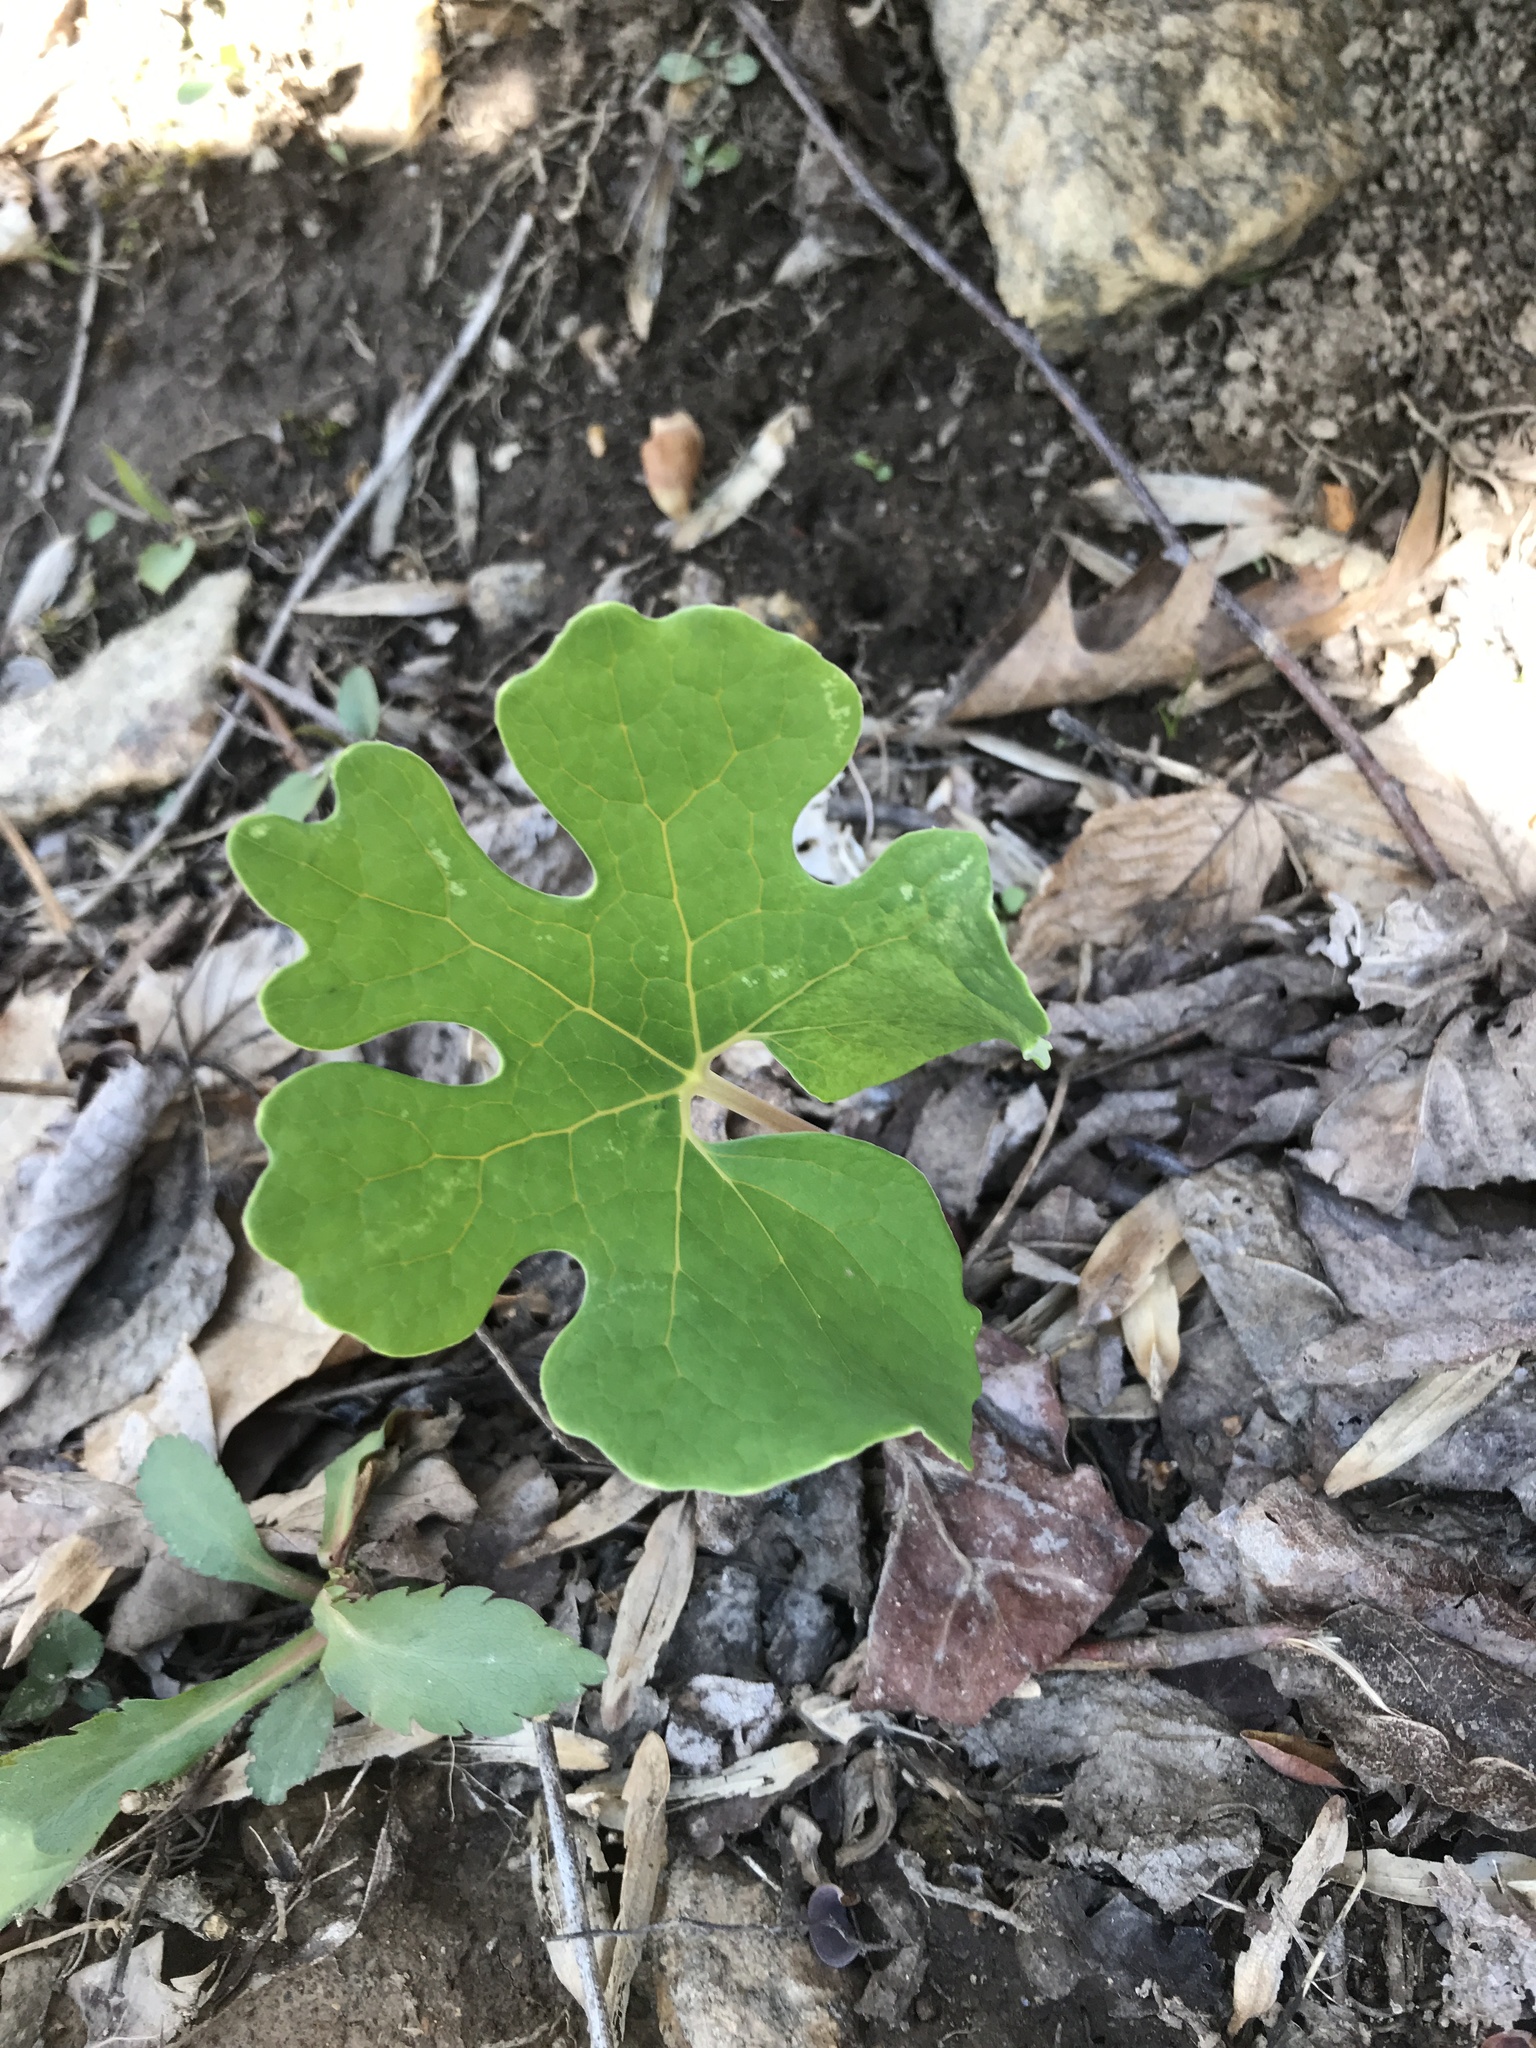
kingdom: Plantae
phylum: Tracheophyta
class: Magnoliopsida
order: Ranunculales
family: Papaveraceae
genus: Sanguinaria
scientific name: Sanguinaria canadensis
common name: Bloodroot
